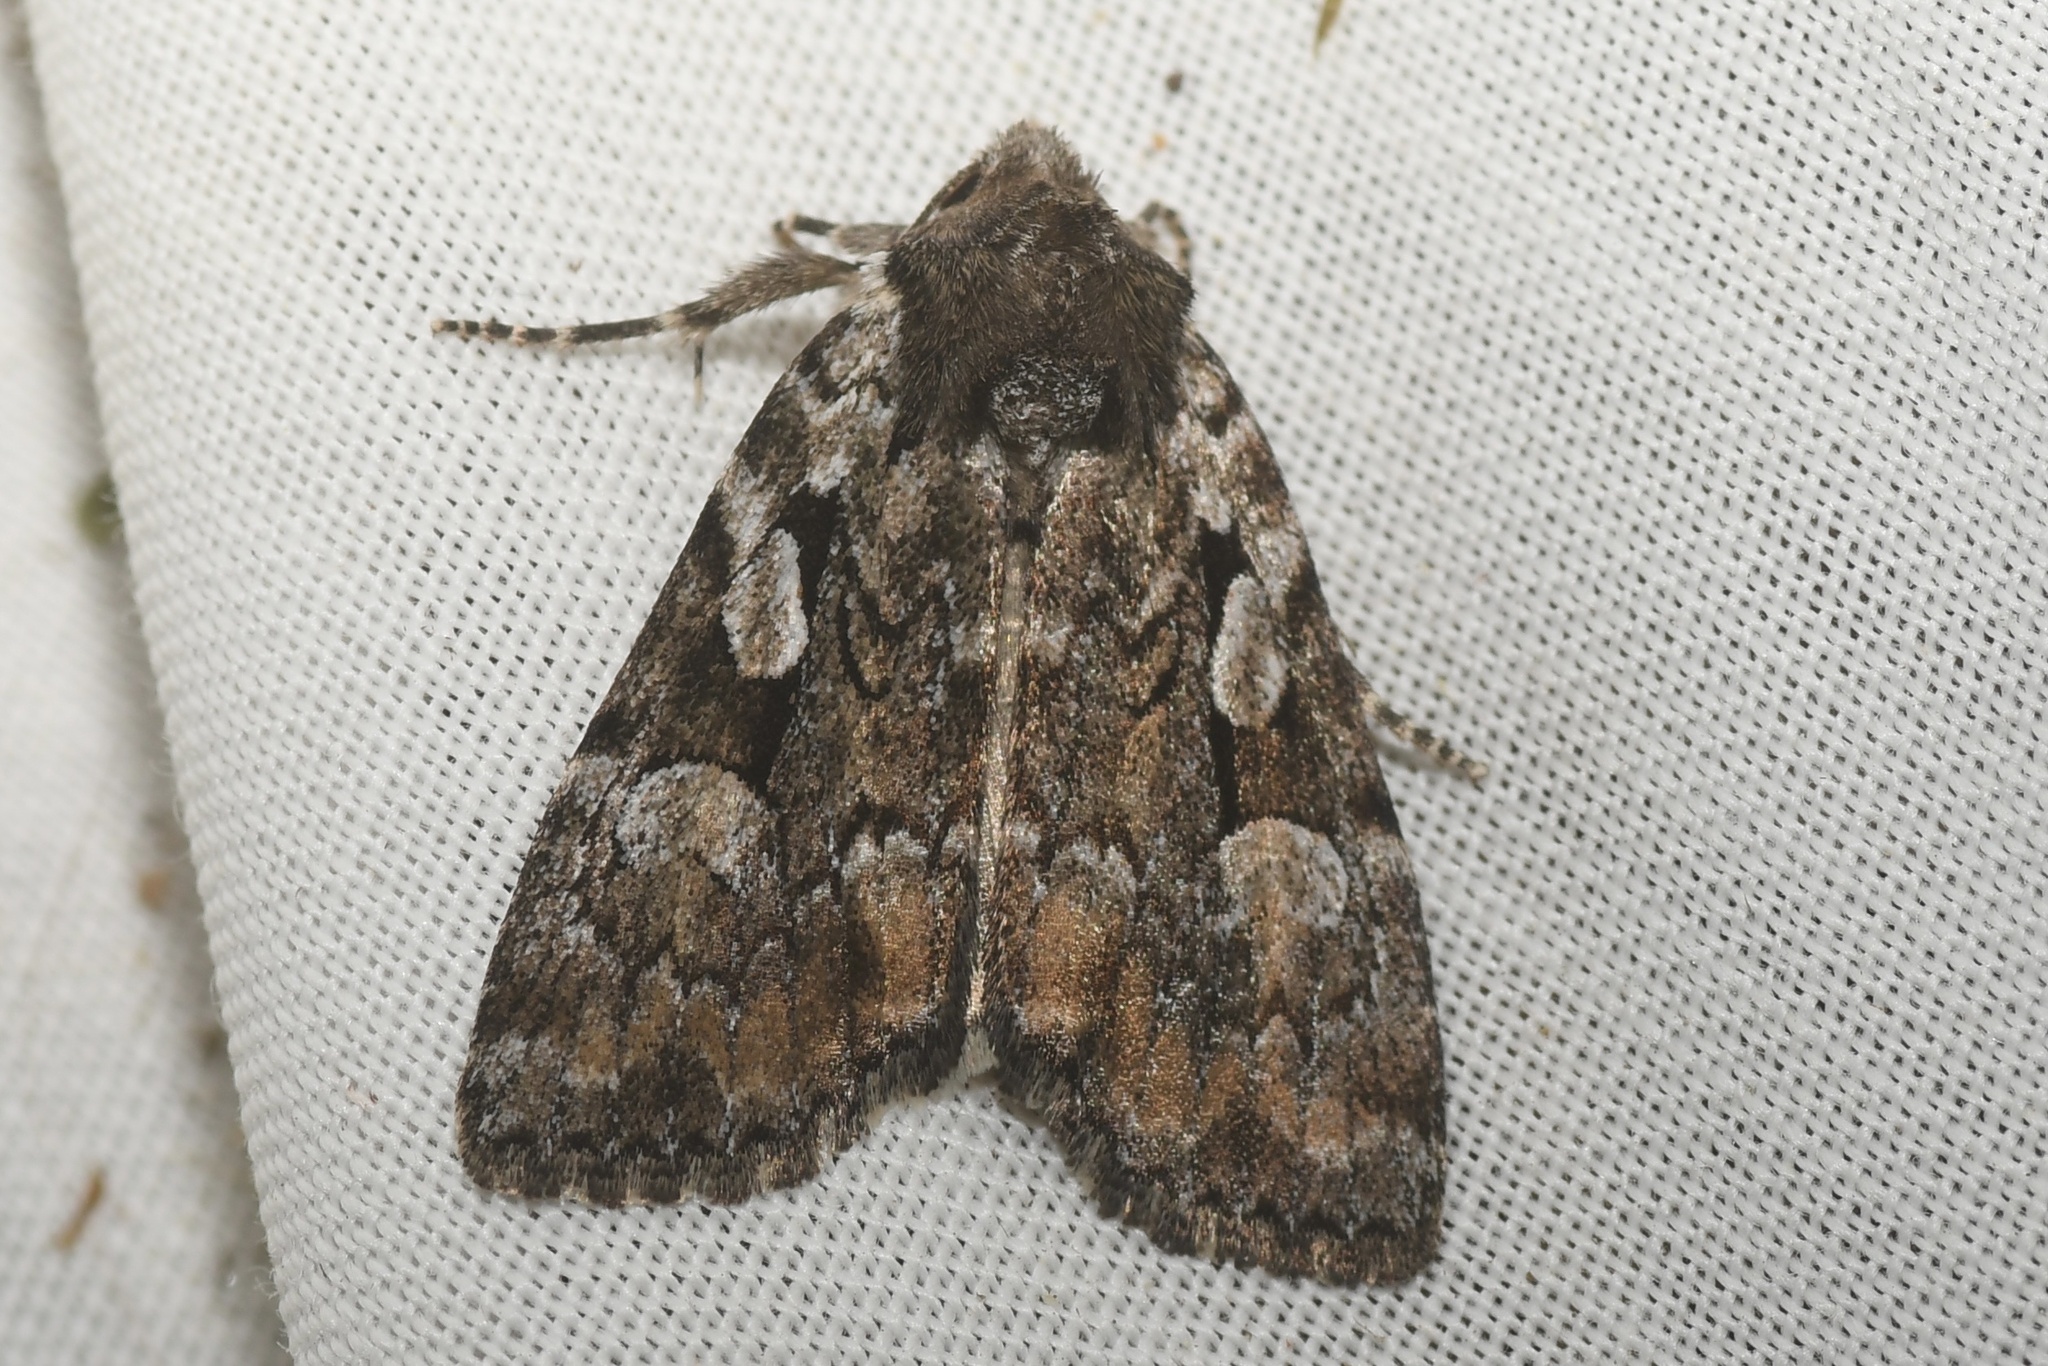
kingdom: Animalia
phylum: Arthropoda
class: Insecta
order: Lepidoptera
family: Noctuidae
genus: Aplectoides
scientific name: Aplectoides condita
